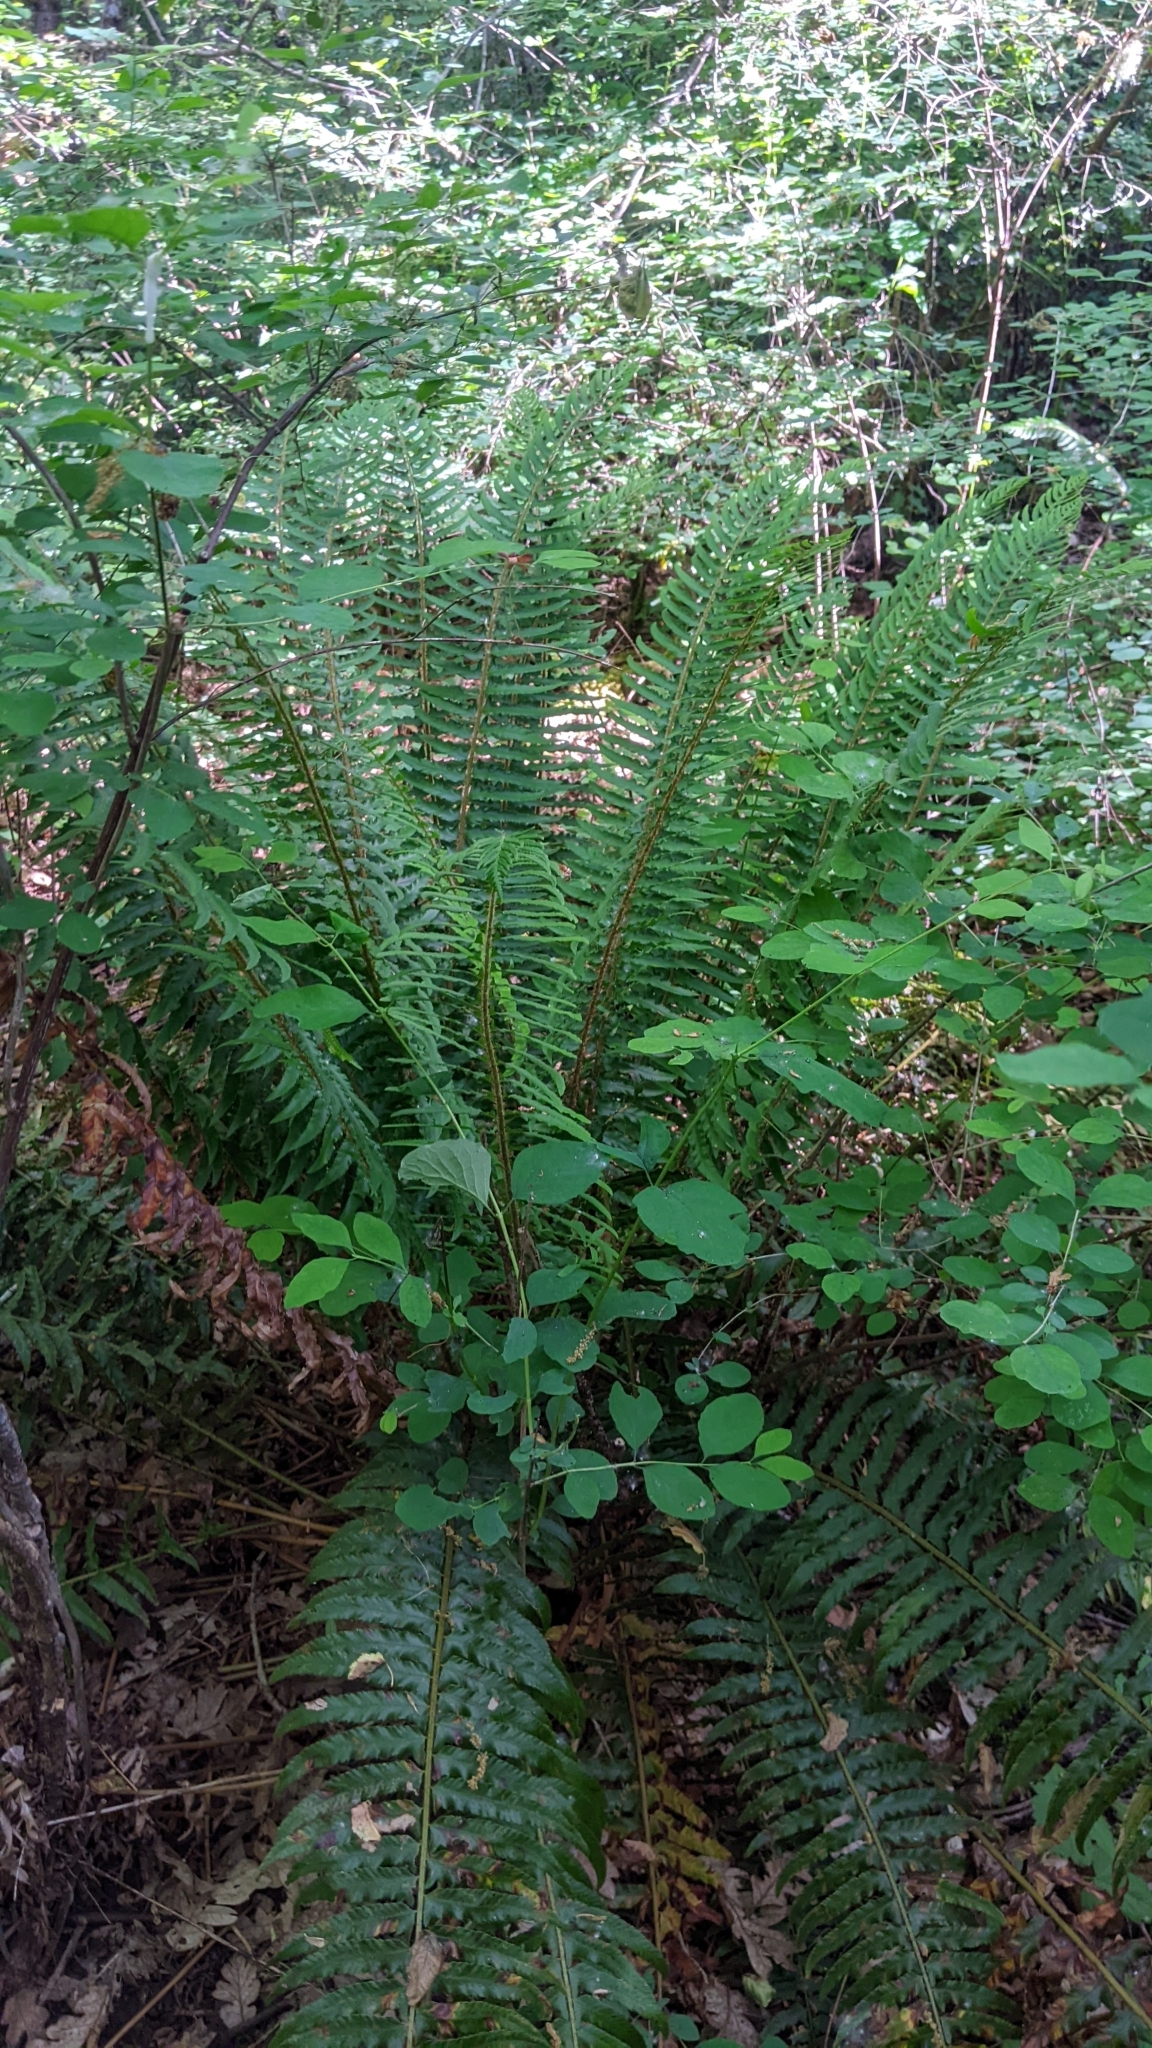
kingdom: Plantae
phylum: Tracheophyta
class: Polypodiopsida
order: Polypodiales
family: Dryopteridaceae
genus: Polystichum
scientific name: Polystichum munitum
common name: Western sword-fern
